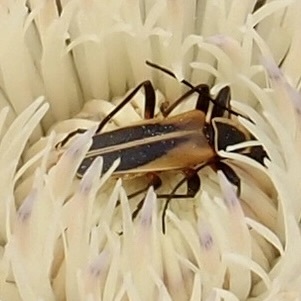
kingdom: Animalia
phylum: Arthropoda
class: Insecta
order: Coleoptera
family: Cantharidae
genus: Chauliognathus
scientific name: Chauliognathus opacus
